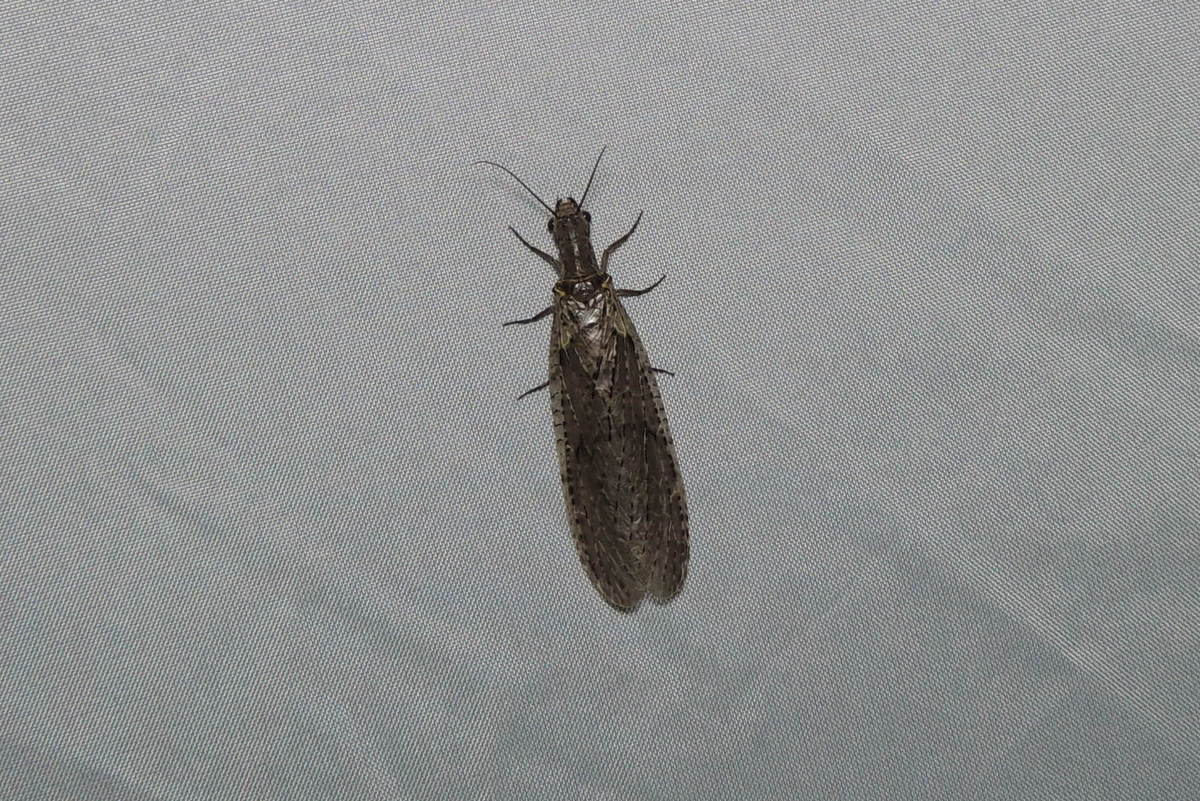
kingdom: Animalia
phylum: Arthropoda
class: Insecta
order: Megaloptera
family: Corydalidae
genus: Chauliodes
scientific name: Chauliodes rastricornis
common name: Spring fishfly
